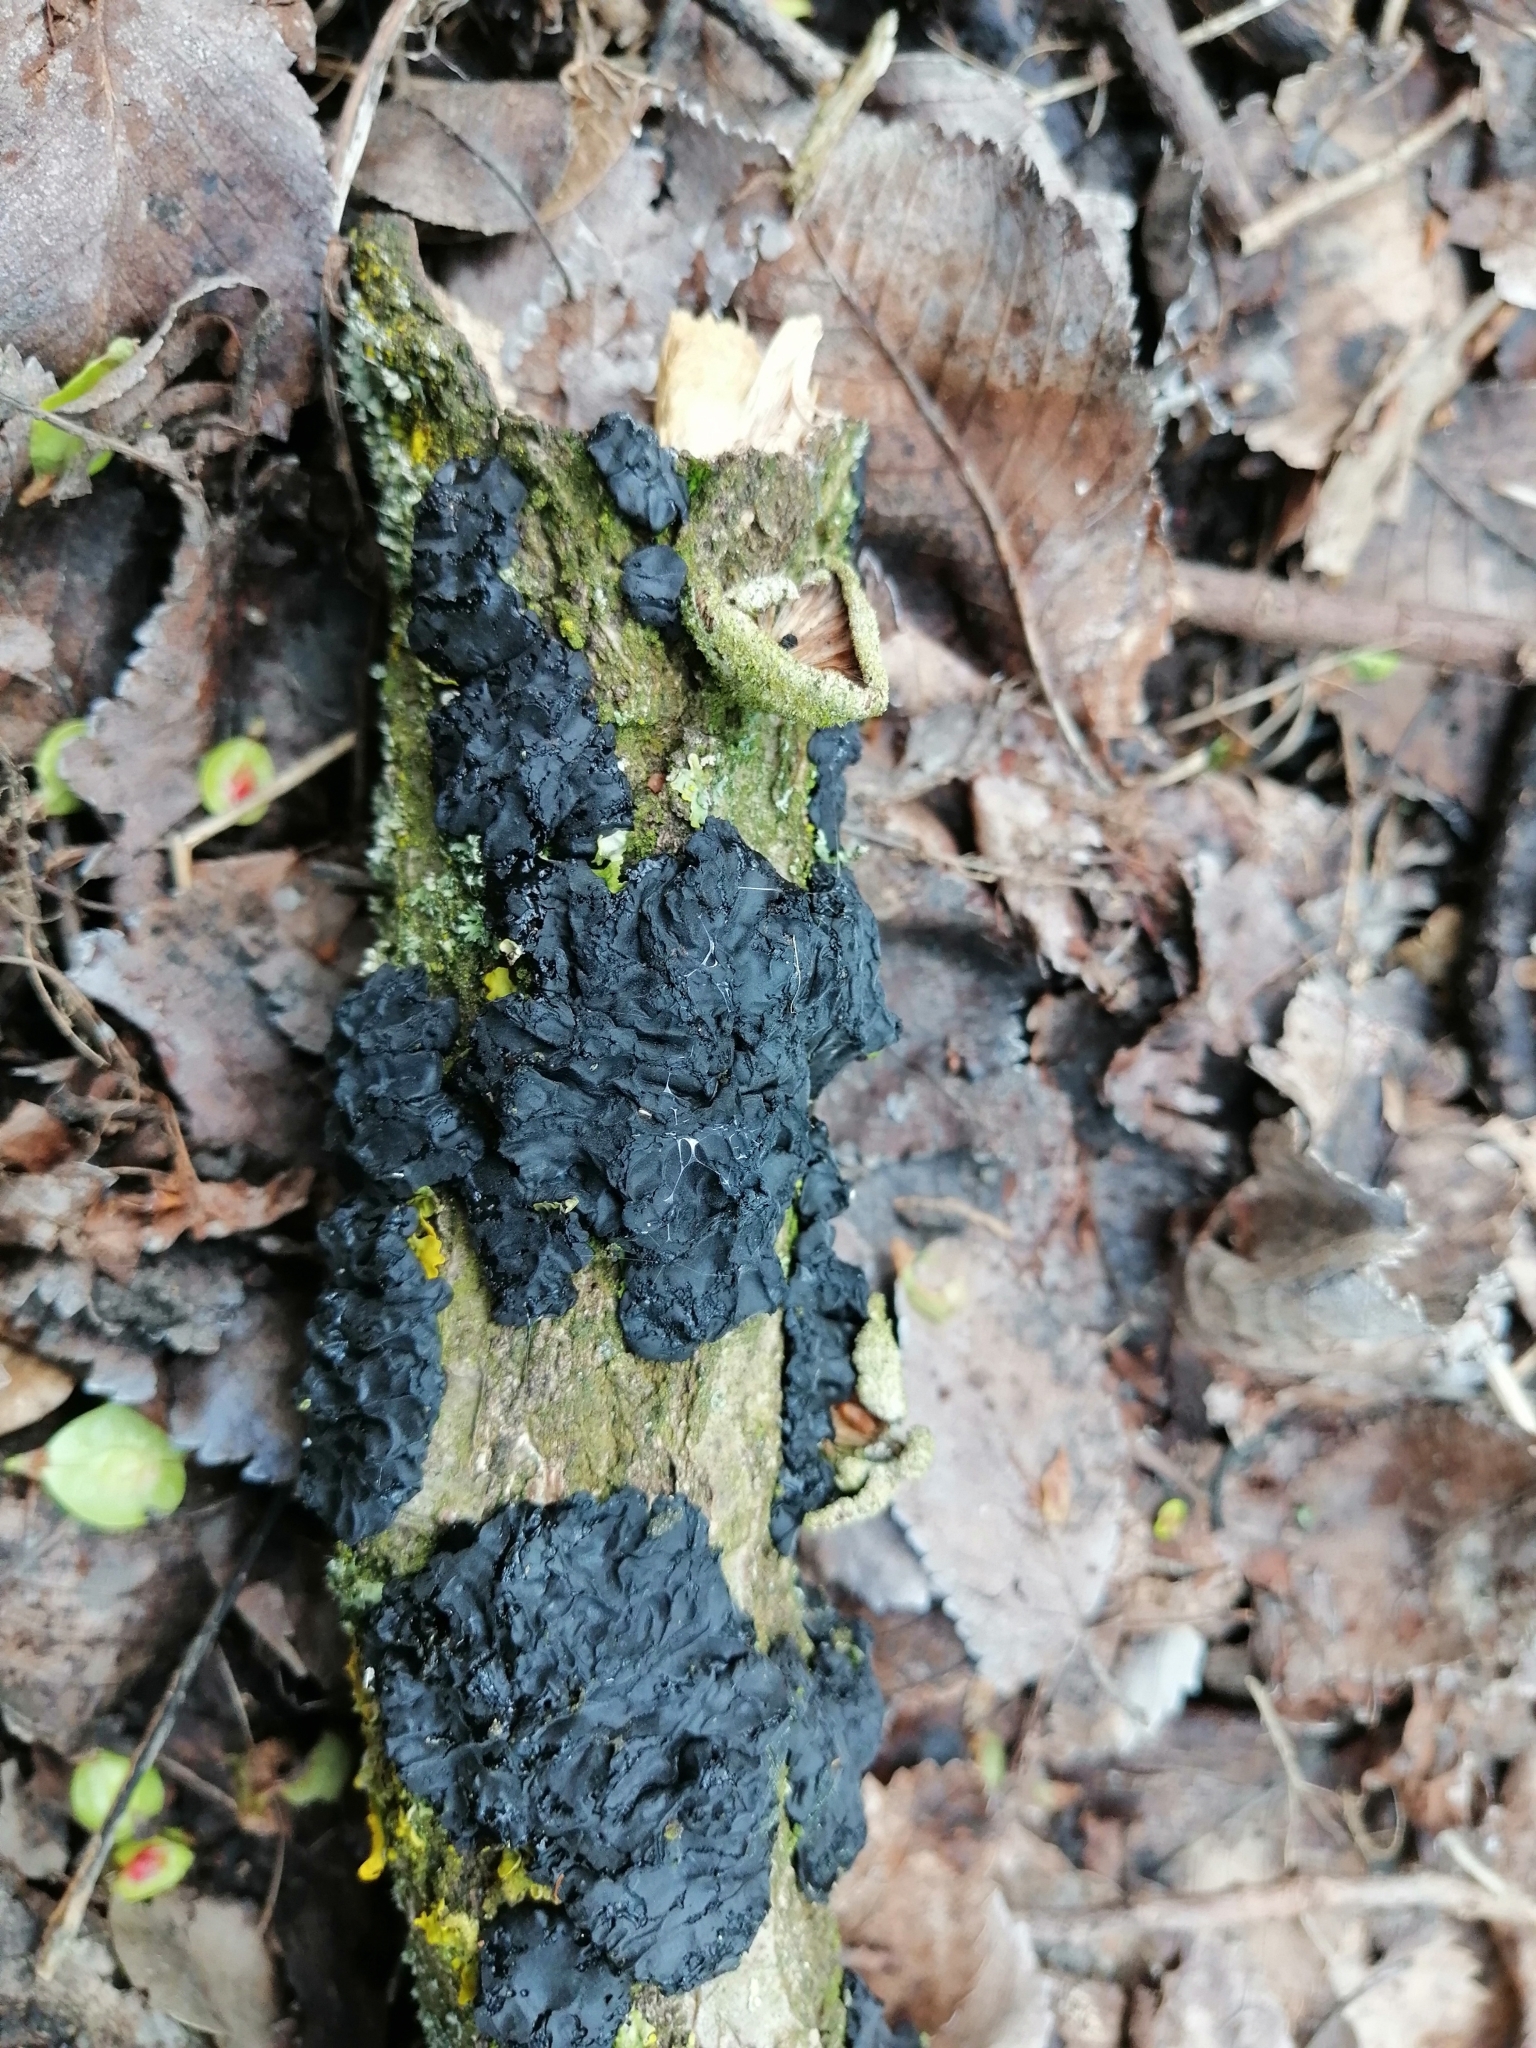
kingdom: Fungi
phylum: Basidiomycota
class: Agaricomycetes
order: Auriculariales
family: Auriculariaceae
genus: Exidia
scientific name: Exidia nigricans
